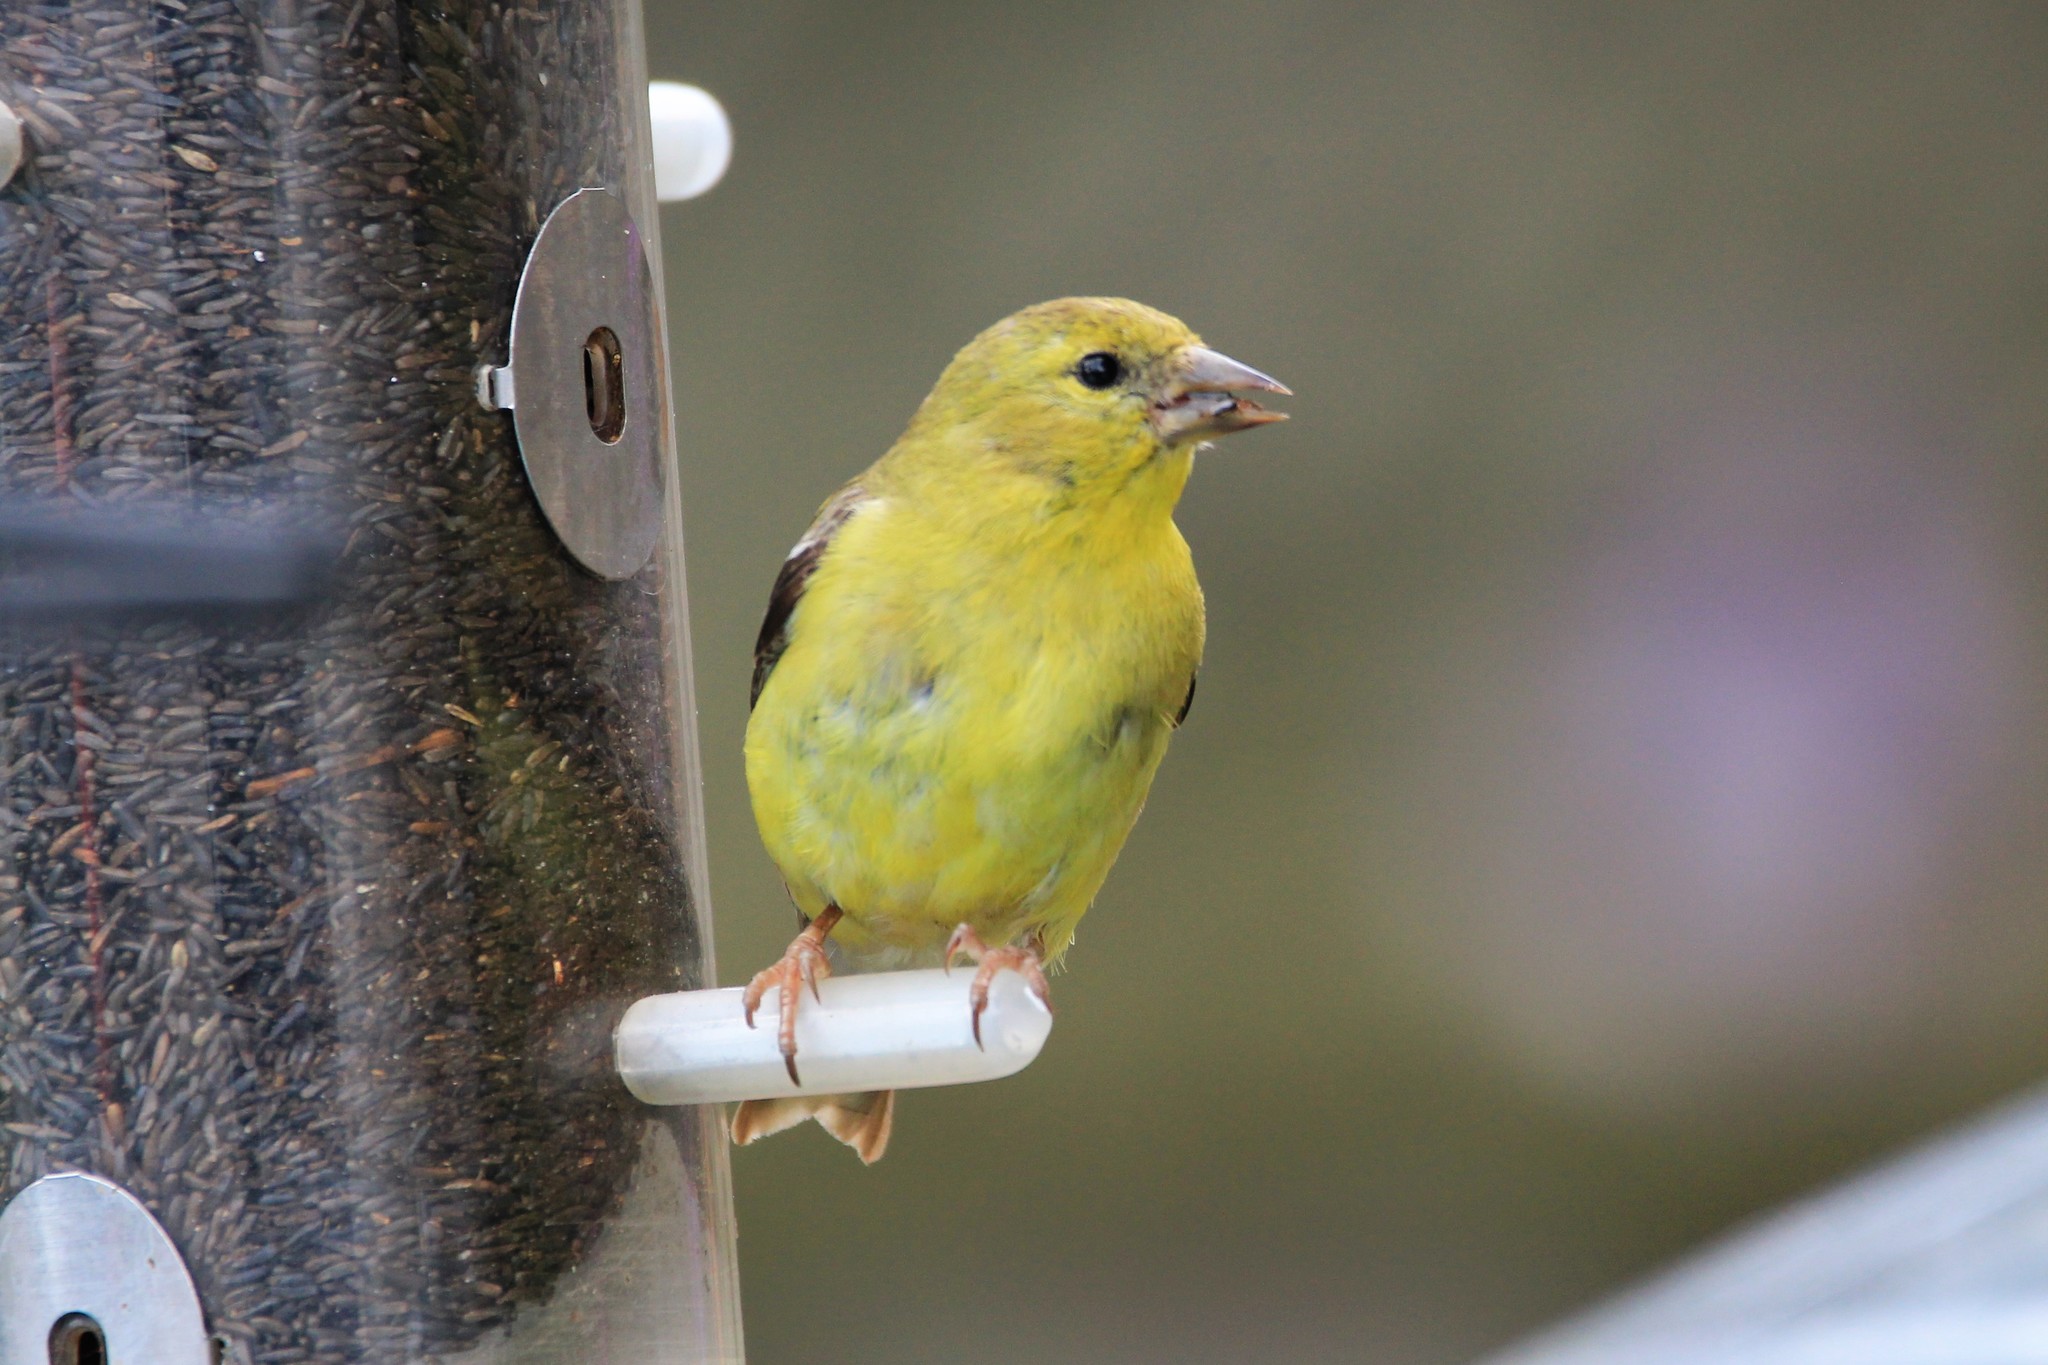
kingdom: Animalia
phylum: Chordata
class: Aves
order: Passeriformes
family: Fringillidae
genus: Spinus
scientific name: Spinus tristis
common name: American goldfinch
